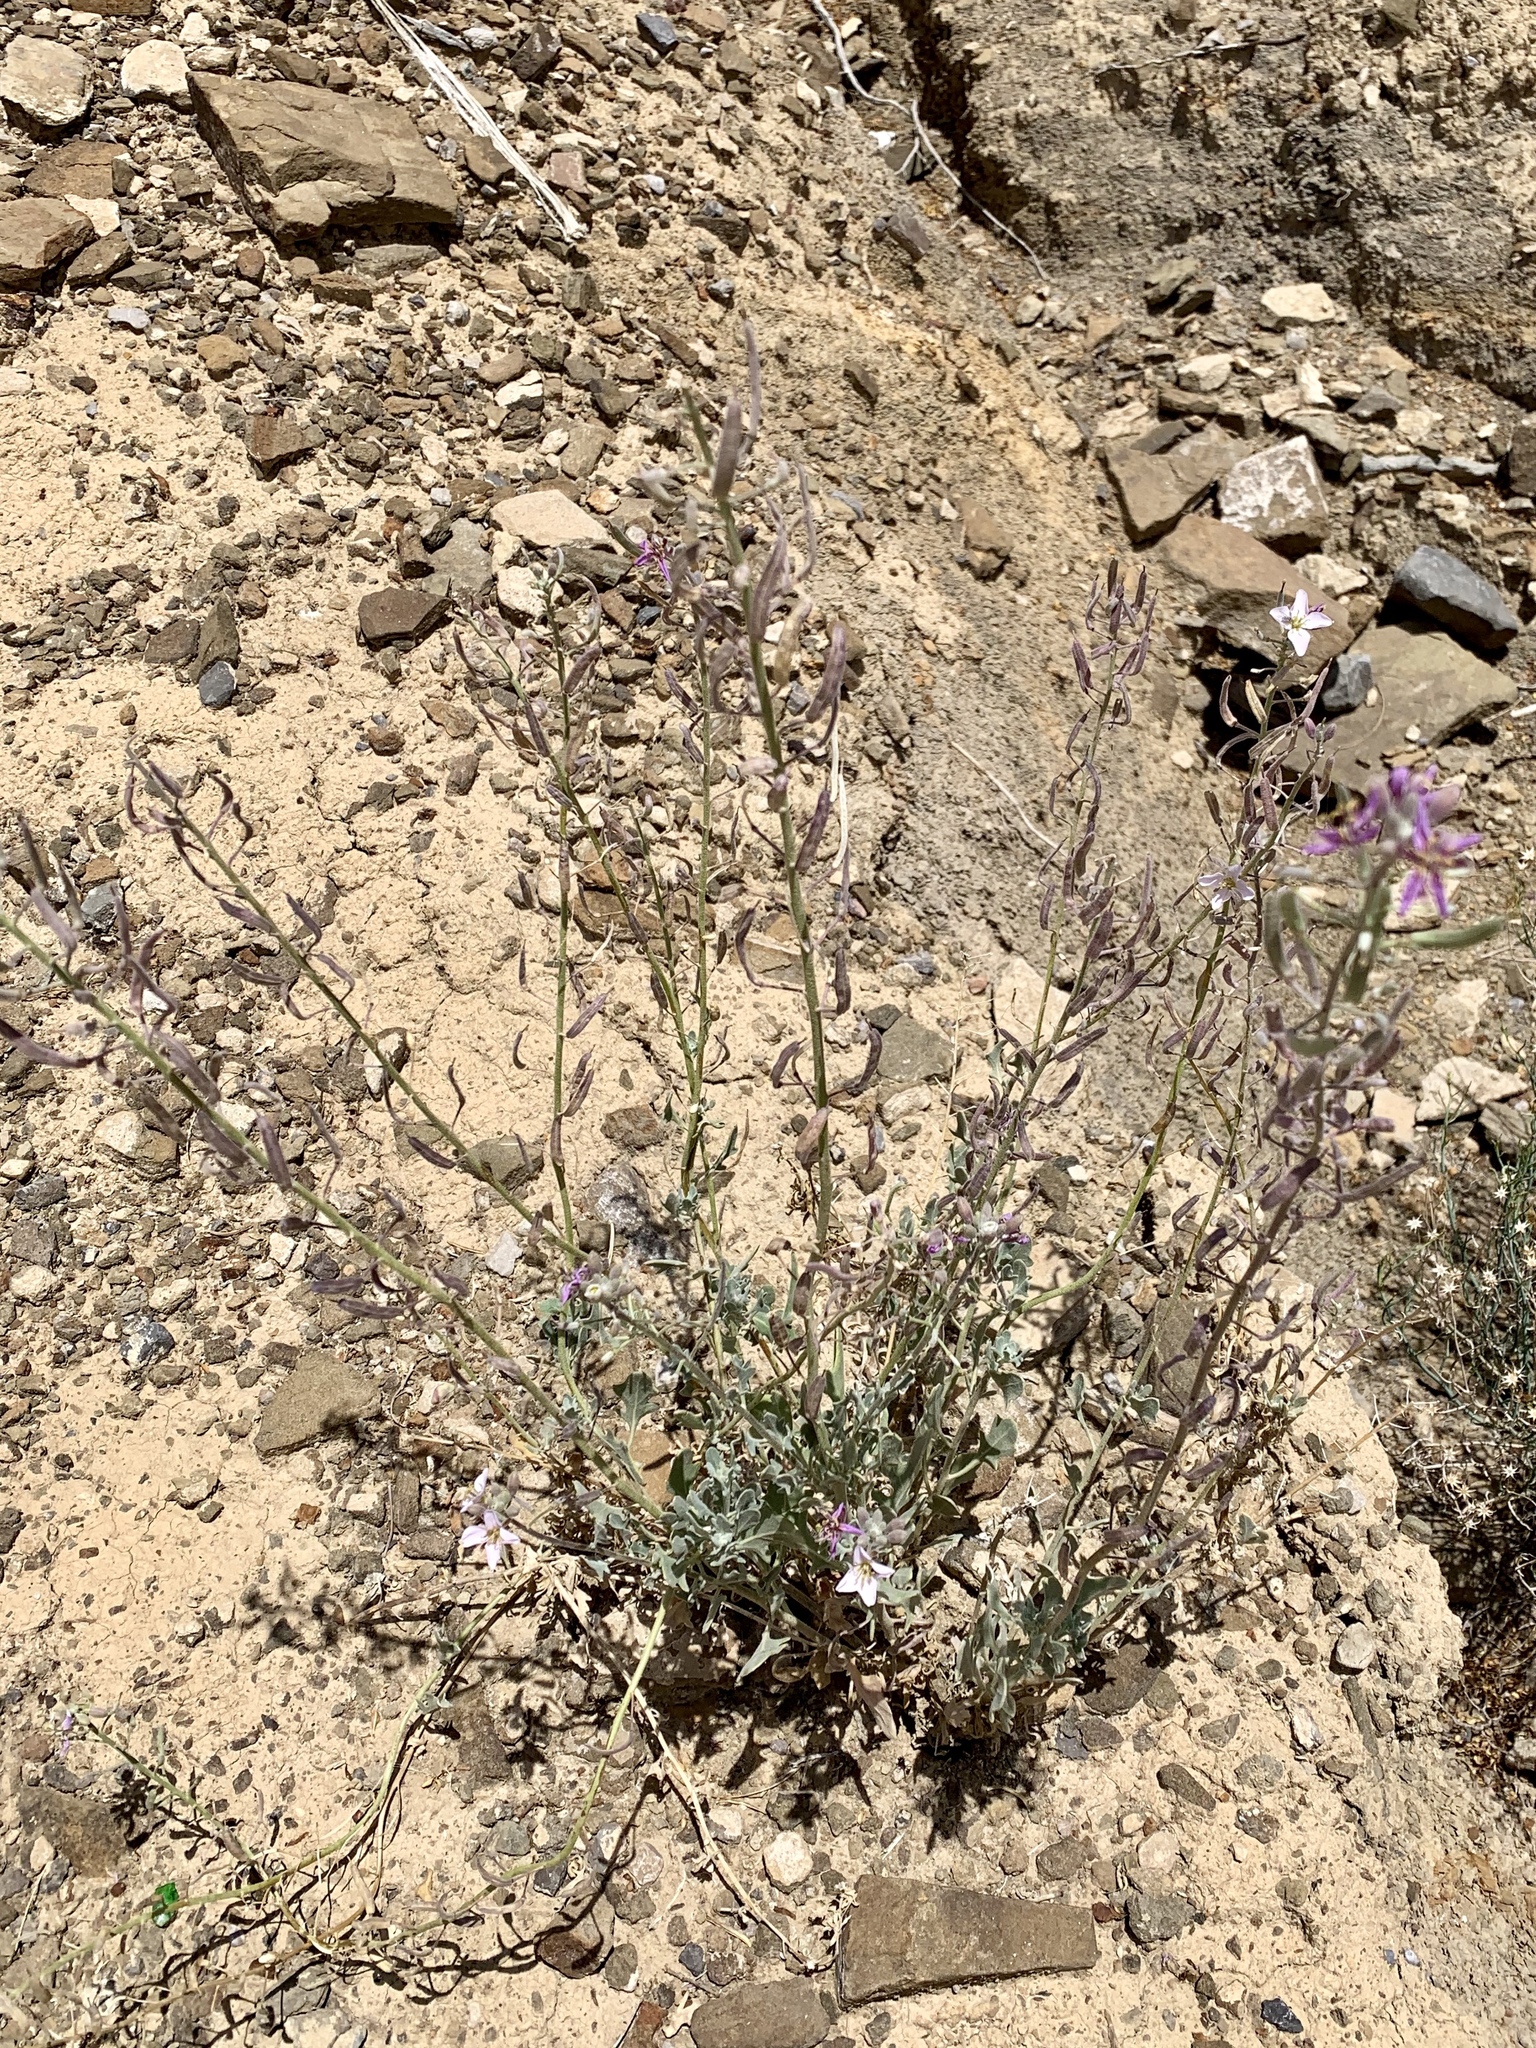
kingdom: Plantae
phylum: Tracheophyta
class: Magnoliopsida
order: Brassicales
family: Brassicaceae
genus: Nerisyrenia
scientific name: Nerisyrenia camporum
